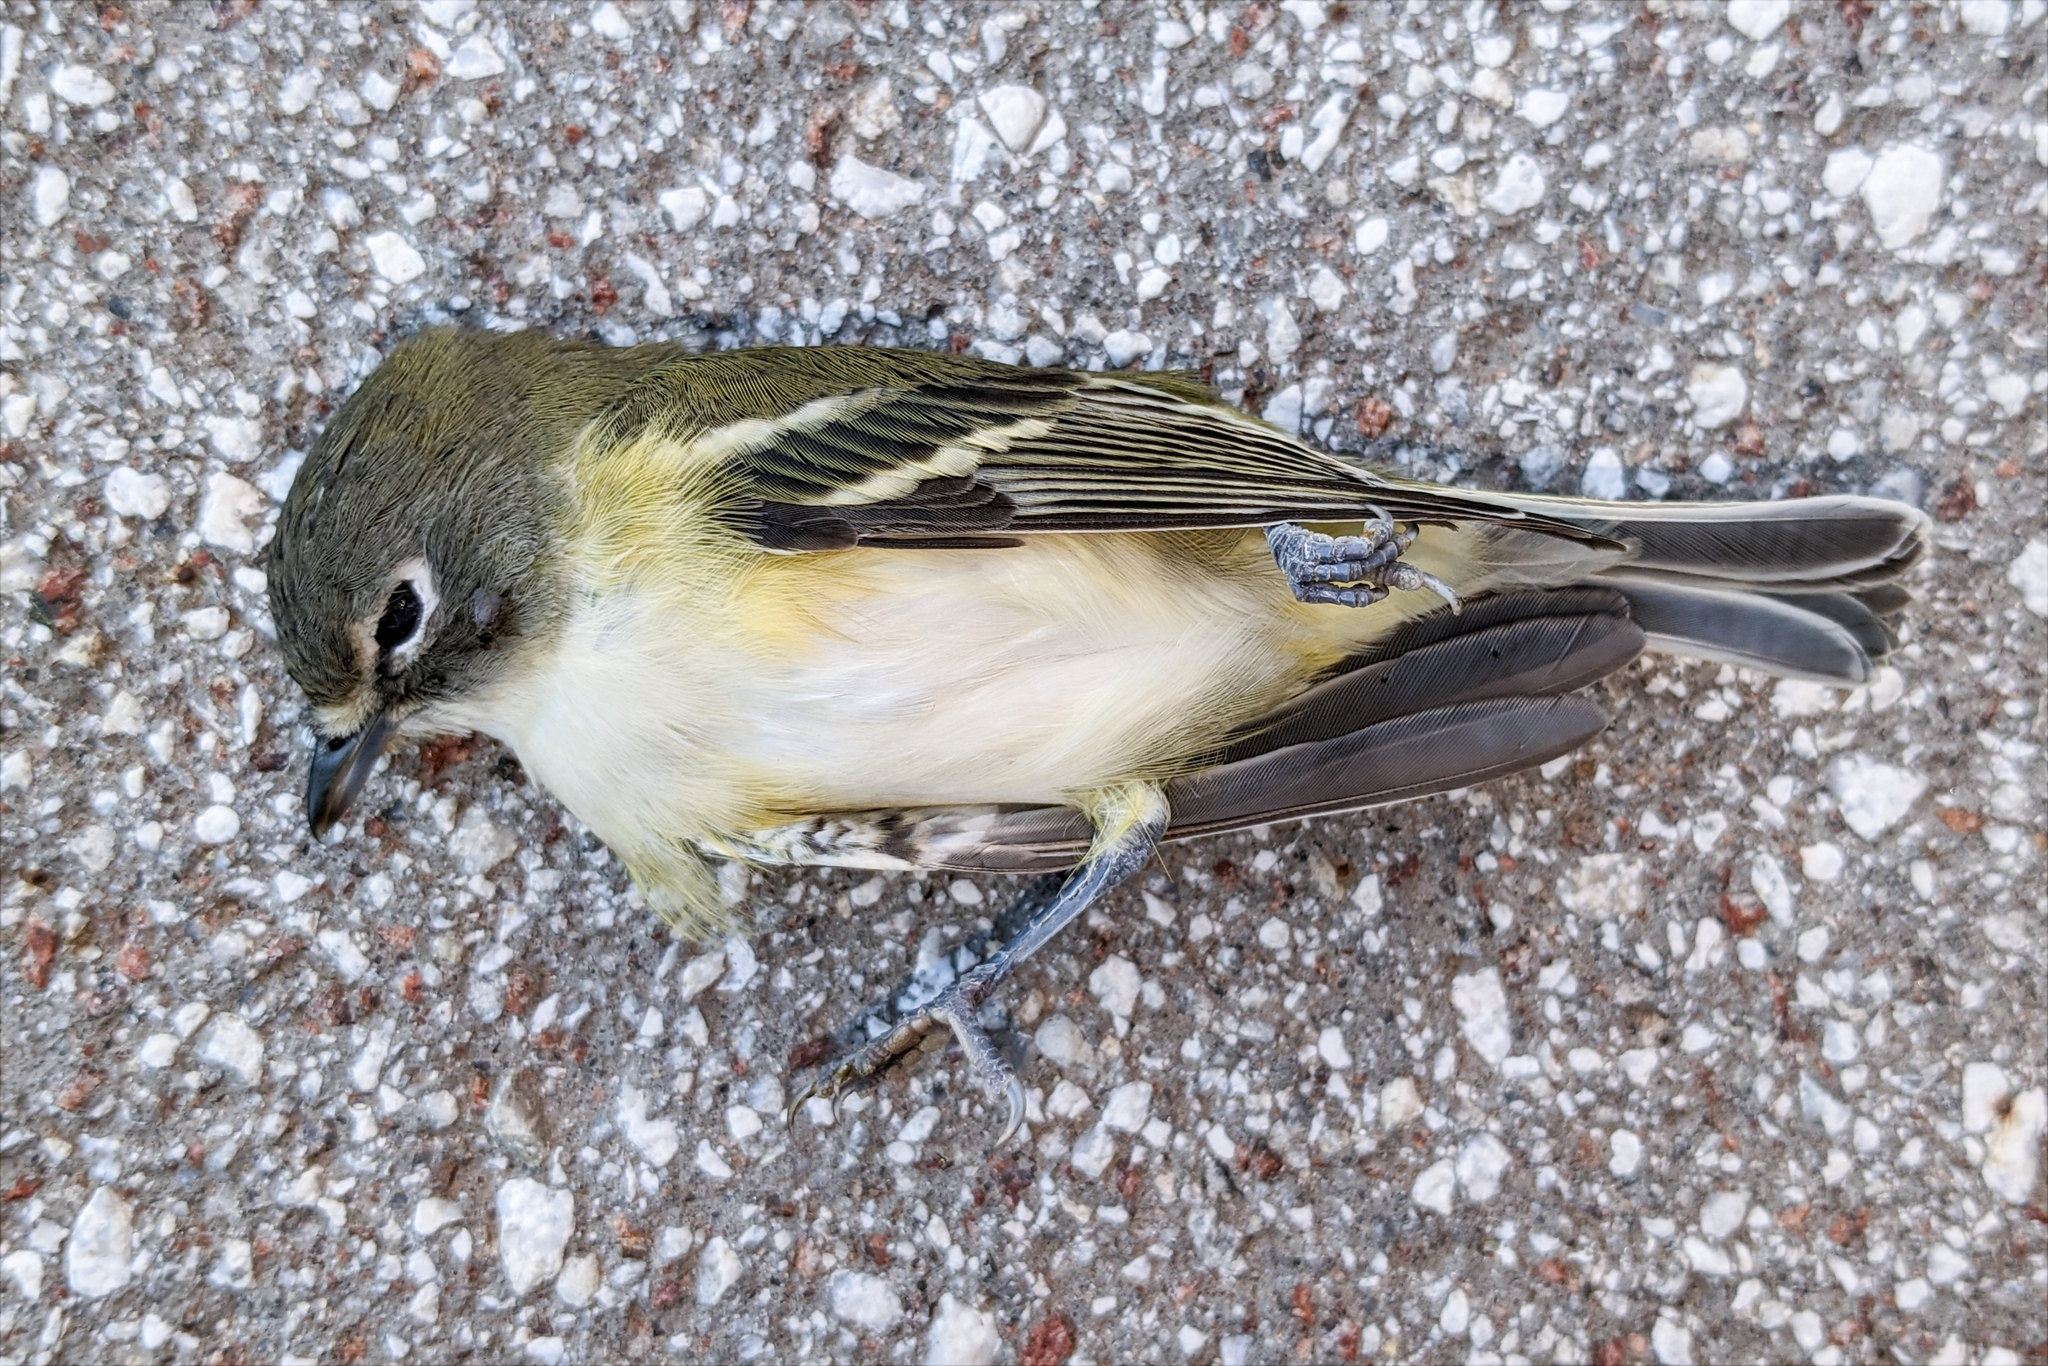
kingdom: Animalia
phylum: Chordata
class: Aves
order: Passeriformes
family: Vireonidae
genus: Vireo
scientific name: Vireo solitarius
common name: Blue-headed vireo
